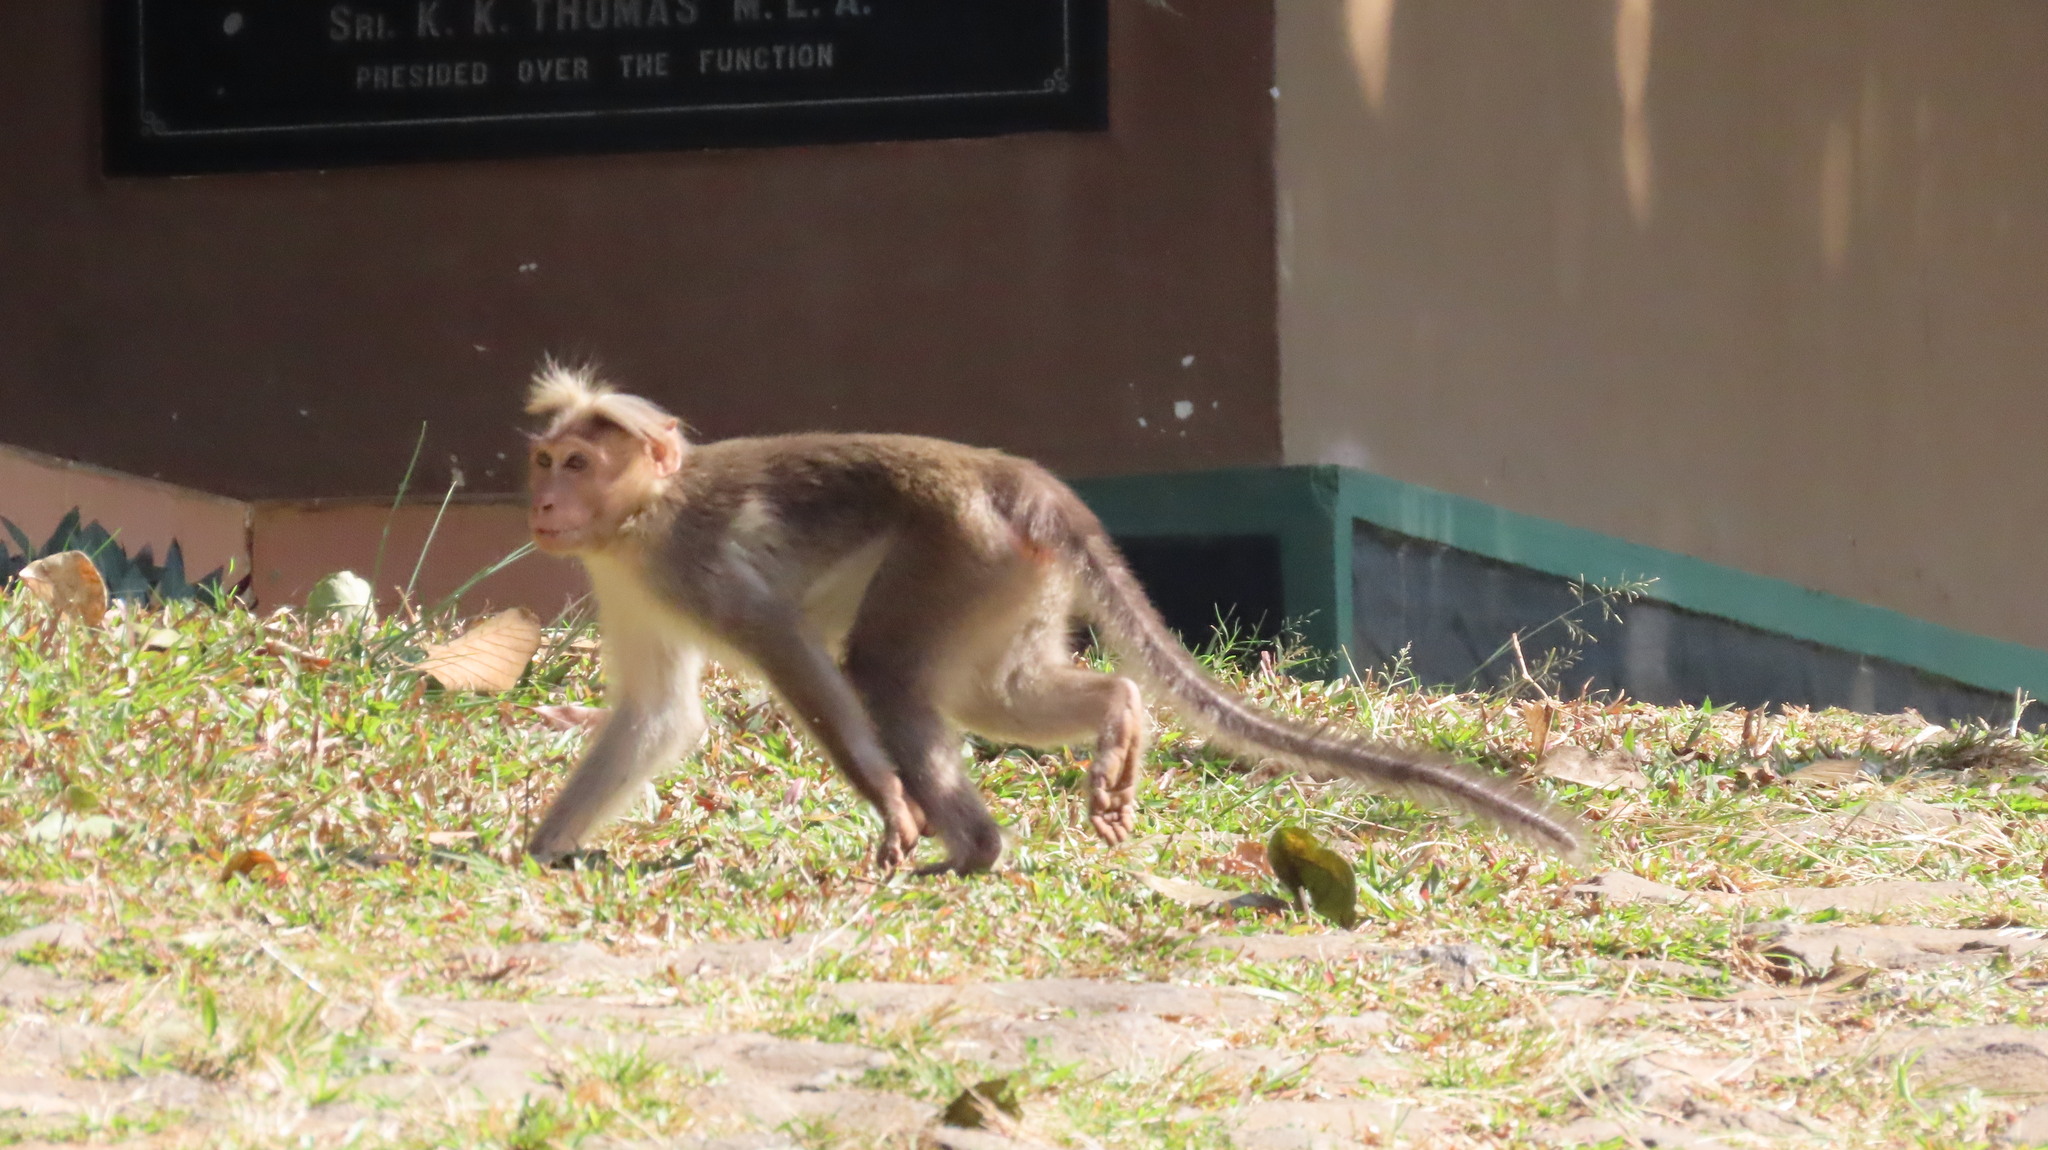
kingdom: Animalia
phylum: Chordata
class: Mammalia
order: Primates
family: Cercopithecidae
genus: Macaca
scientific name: Macaca radiata
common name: Bonnet macaque
